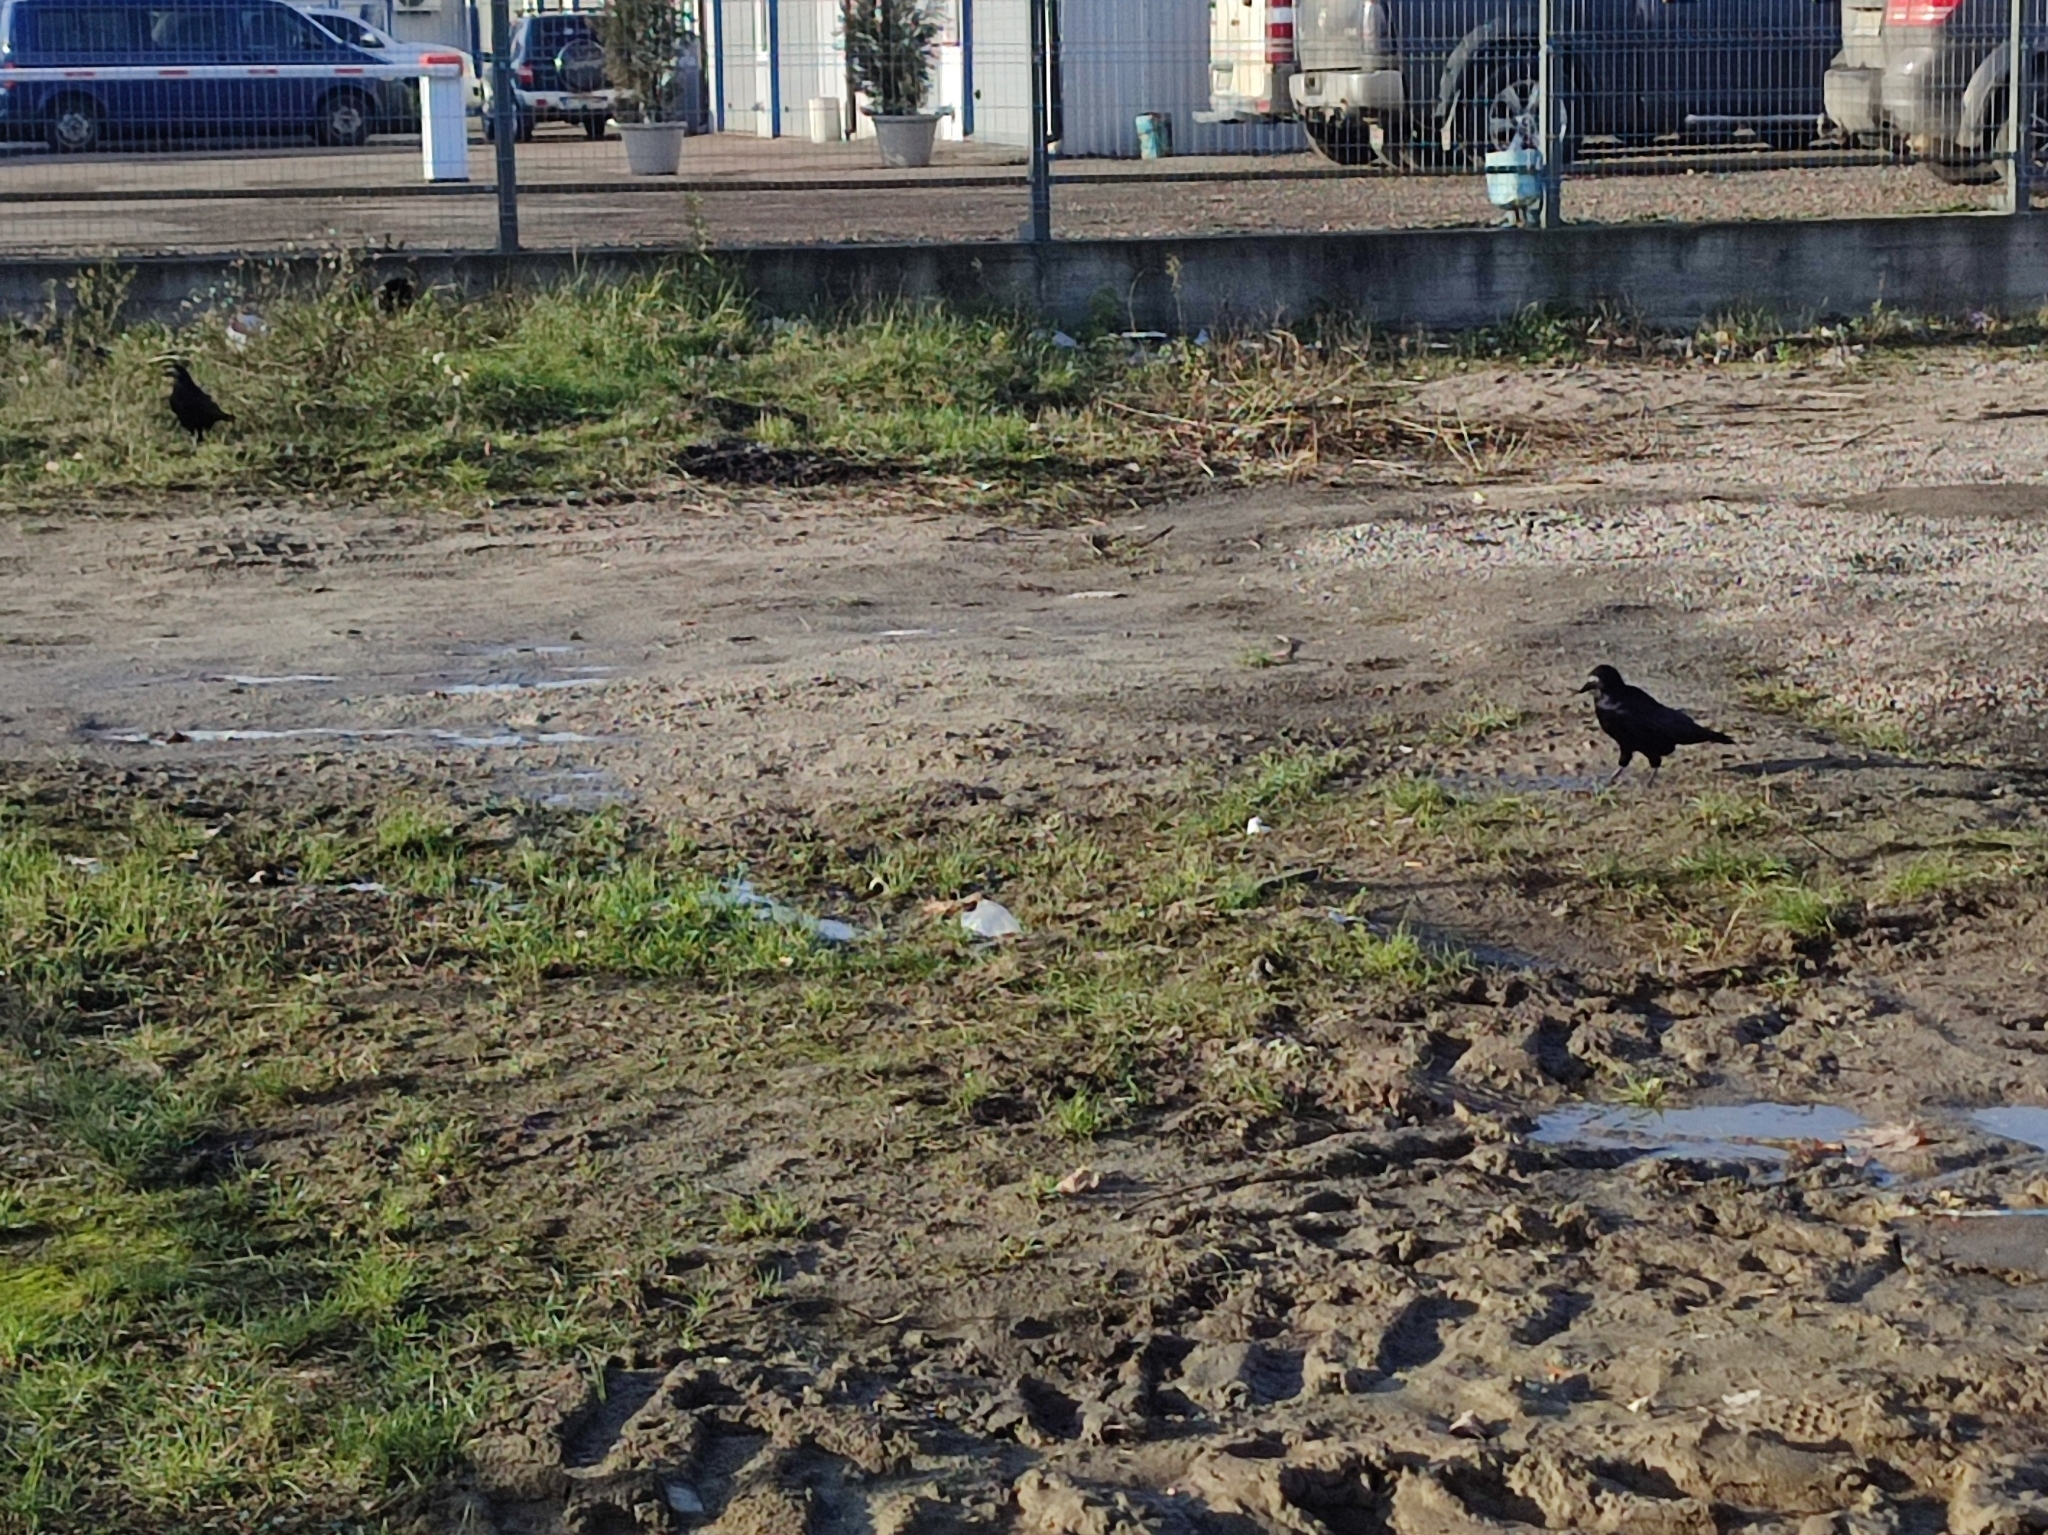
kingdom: Animalia
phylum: Chordata
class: Aves
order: Passeriformes
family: Corvidae
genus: Corvus
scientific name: Corvus frugilegus
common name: Rook
